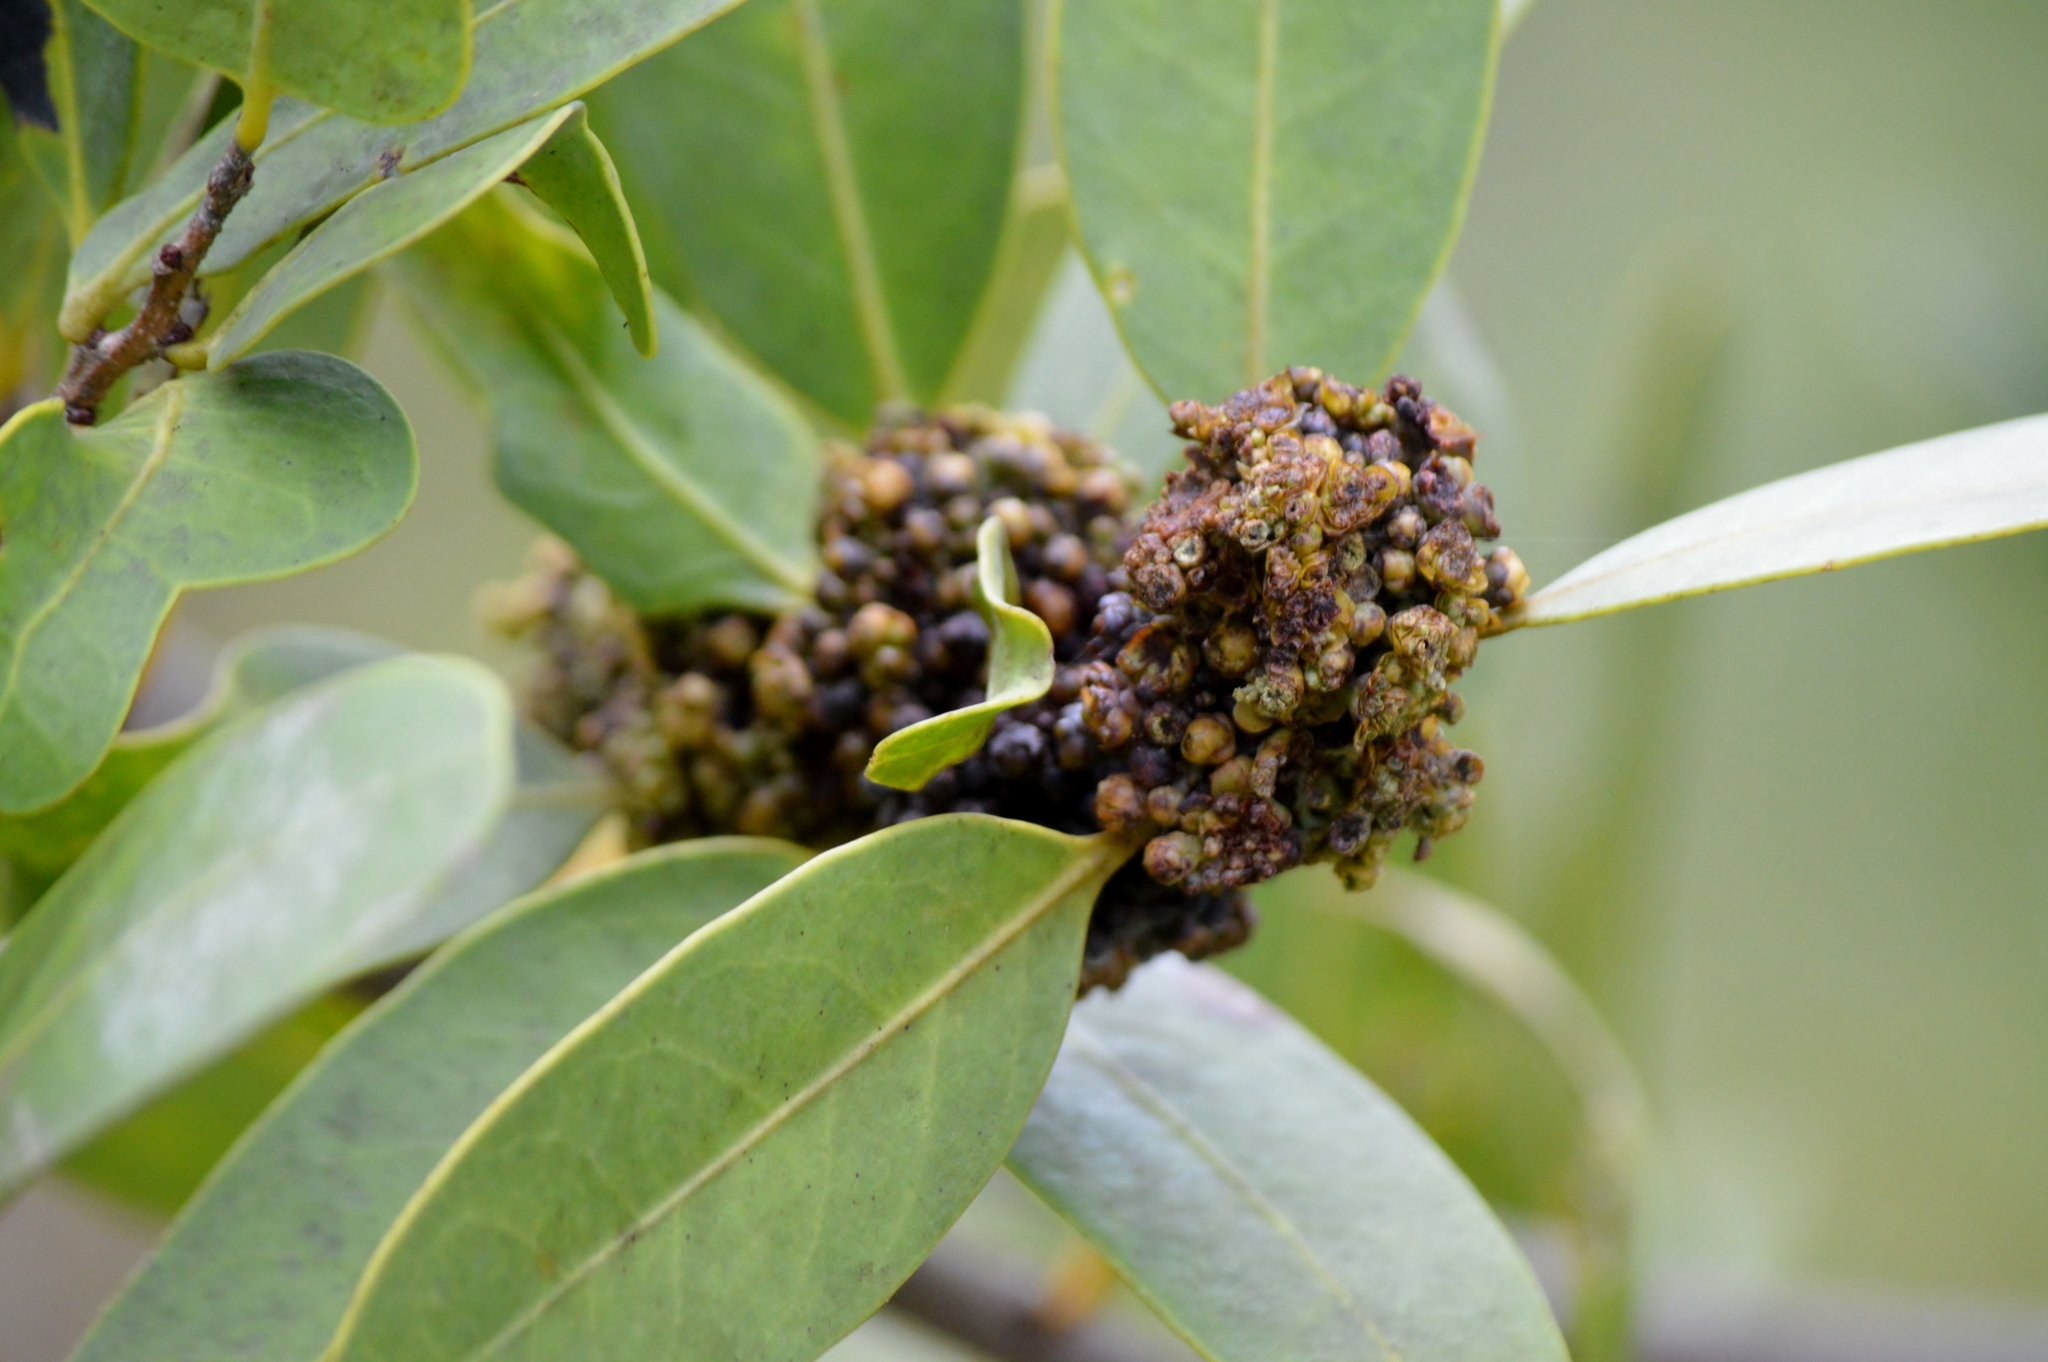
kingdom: Plantae
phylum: Tracheophyta
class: Magnoliopsida
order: Celastrales
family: Celastraceae
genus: Salacia
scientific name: Salacia crassifolia
